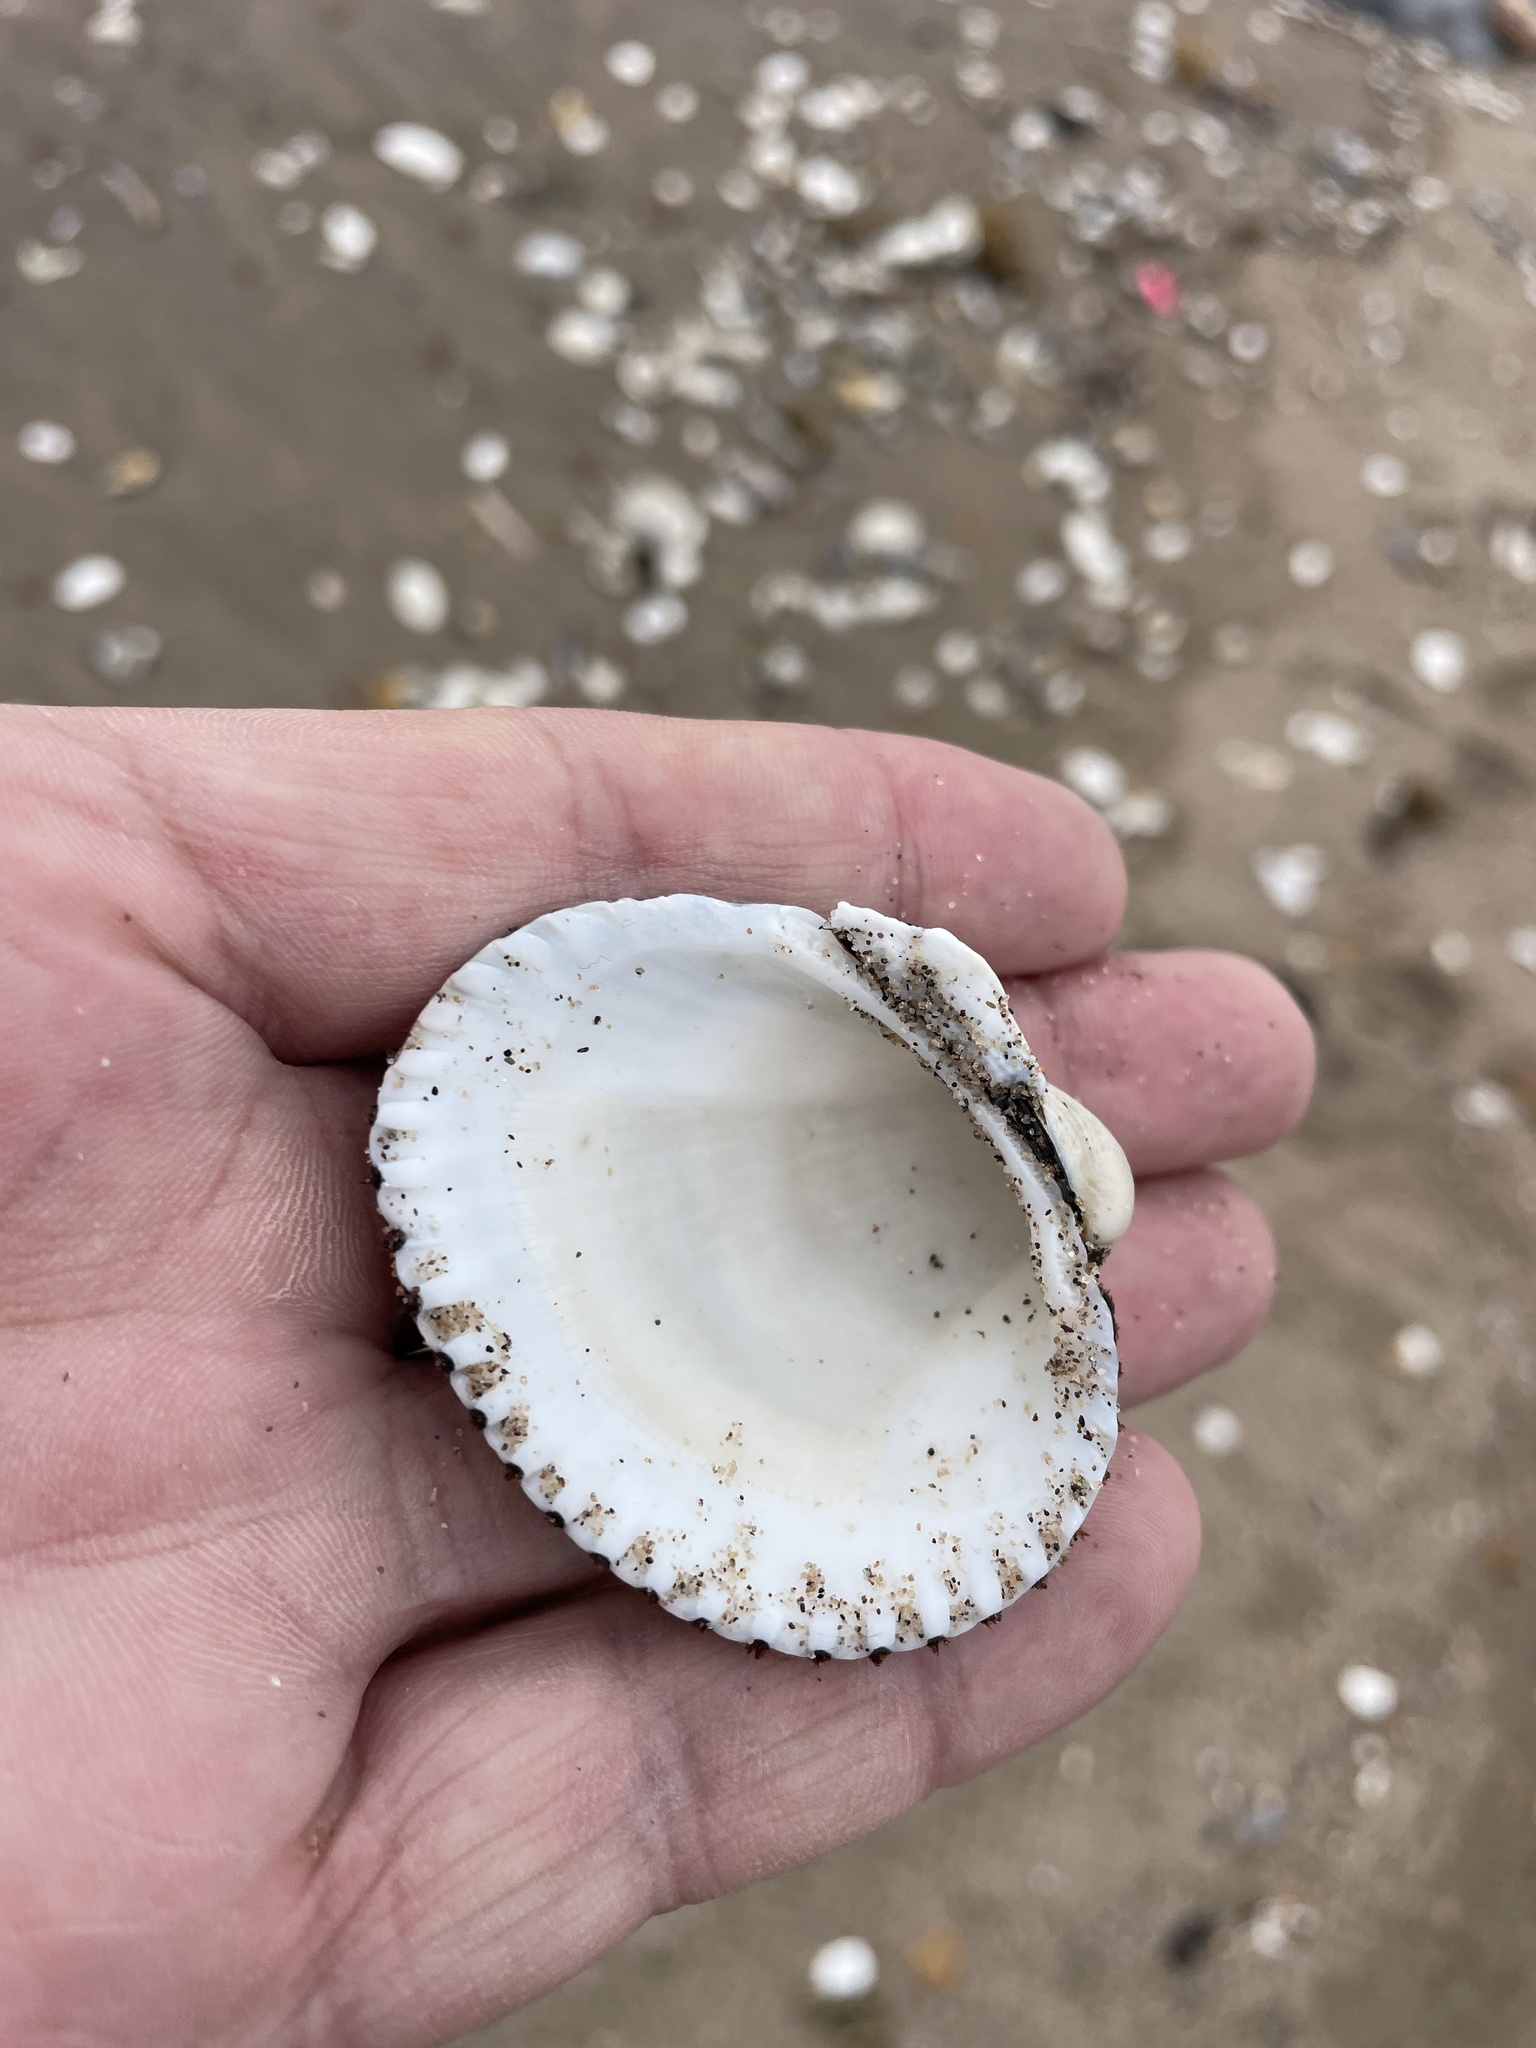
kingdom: Animalia
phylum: Mollusca
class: Bivalvia
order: Arcida
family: Arcidae
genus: Lunarca
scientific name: Lunarca ovalis
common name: Blood ark
